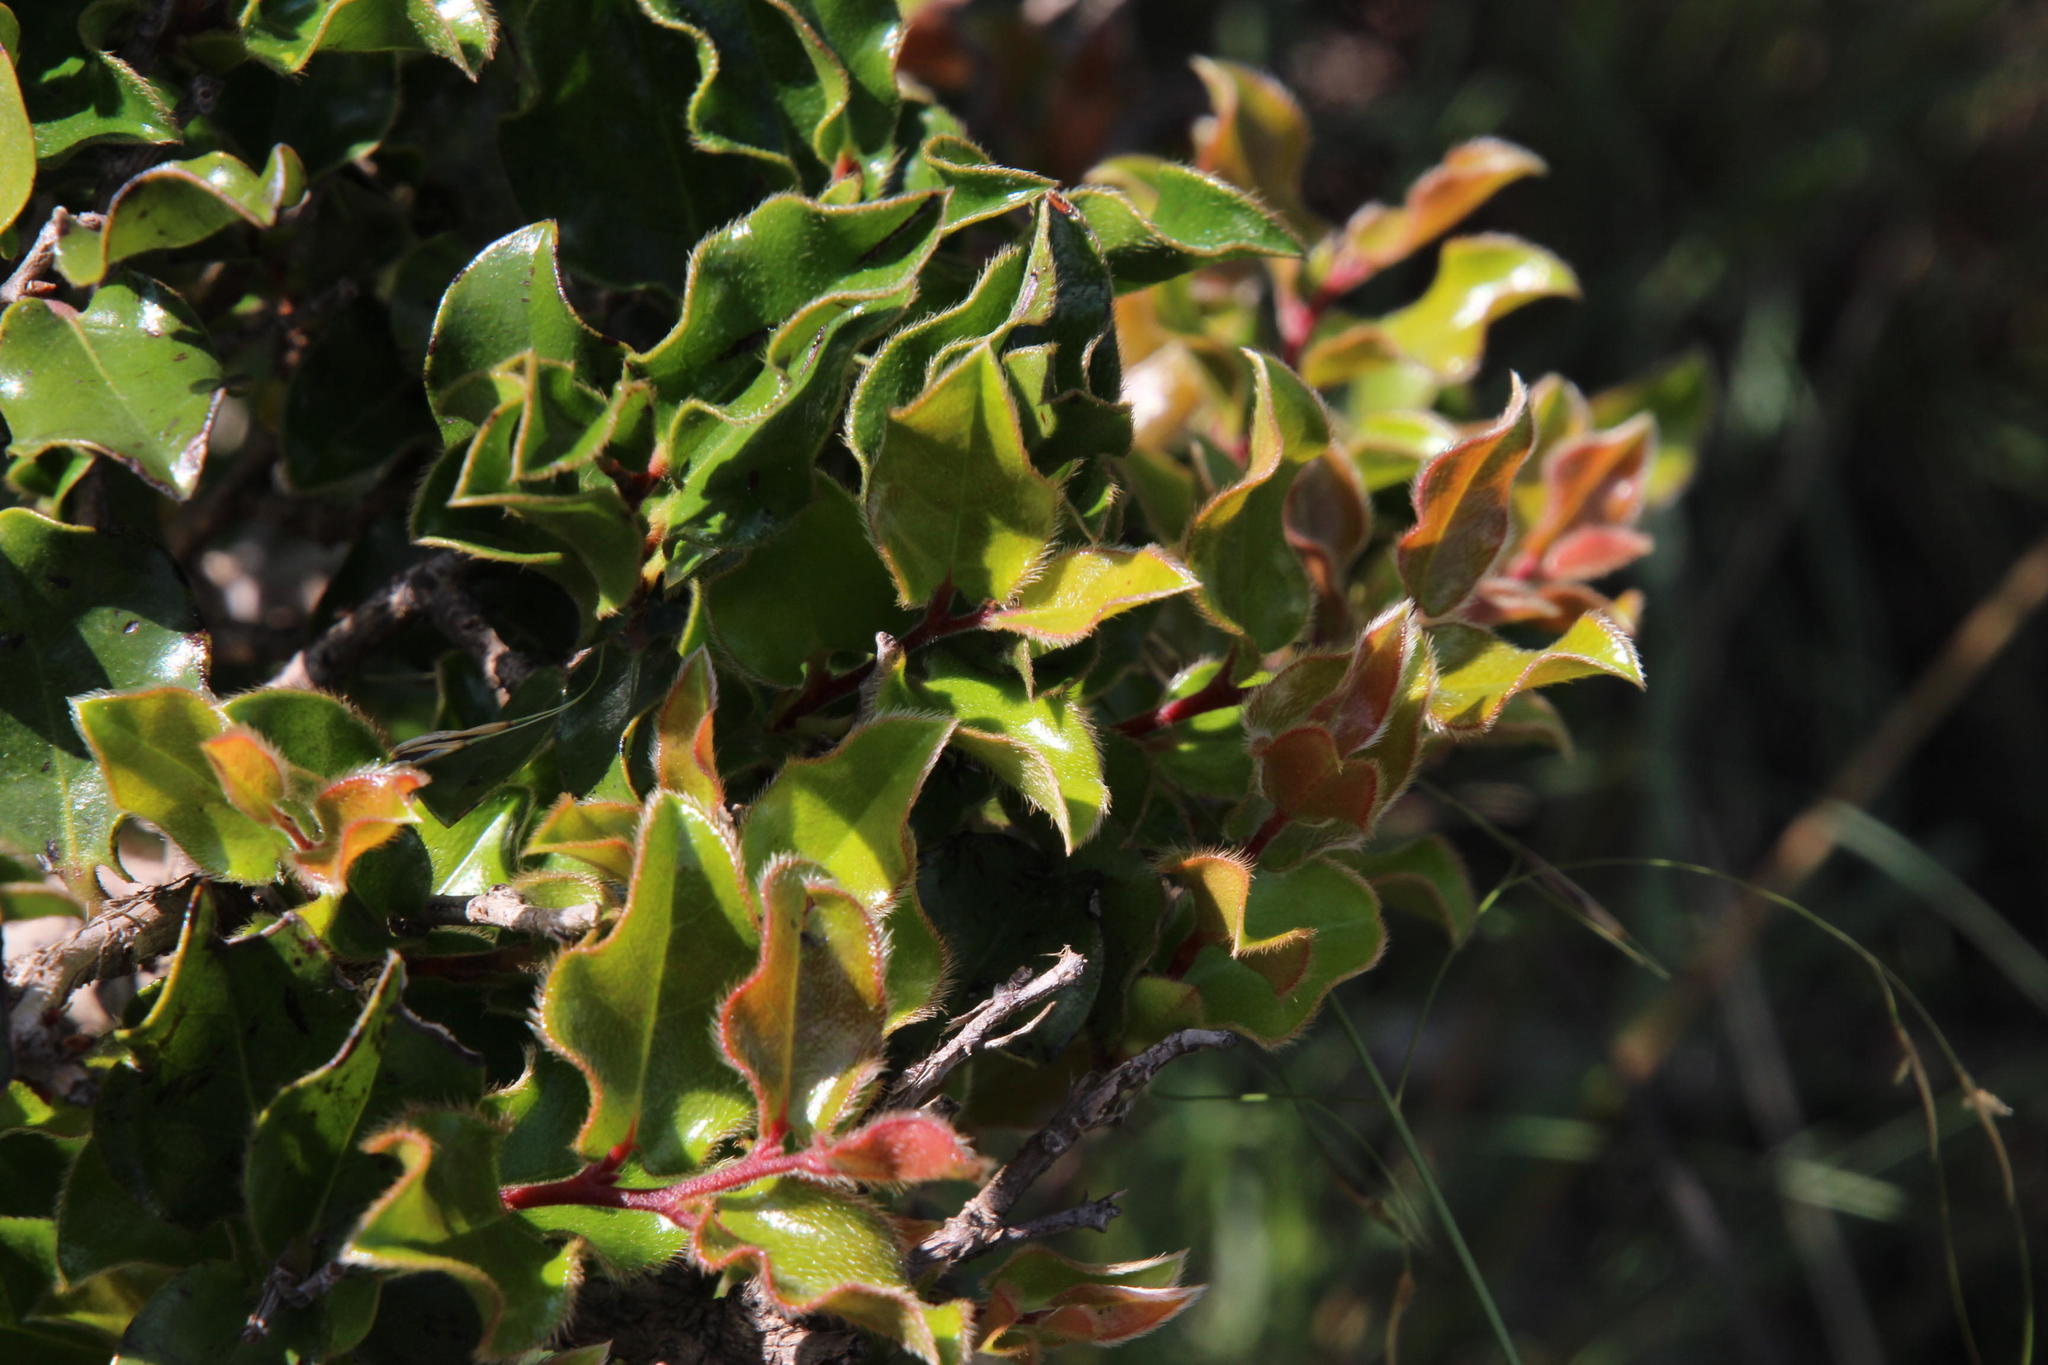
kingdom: Plantae
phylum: Tracheophyta
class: Magnoliopsida
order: Ericales
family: Ebenaceae
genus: Diospyros
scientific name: Diospyros scabrida
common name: Coastal bladder-nut
